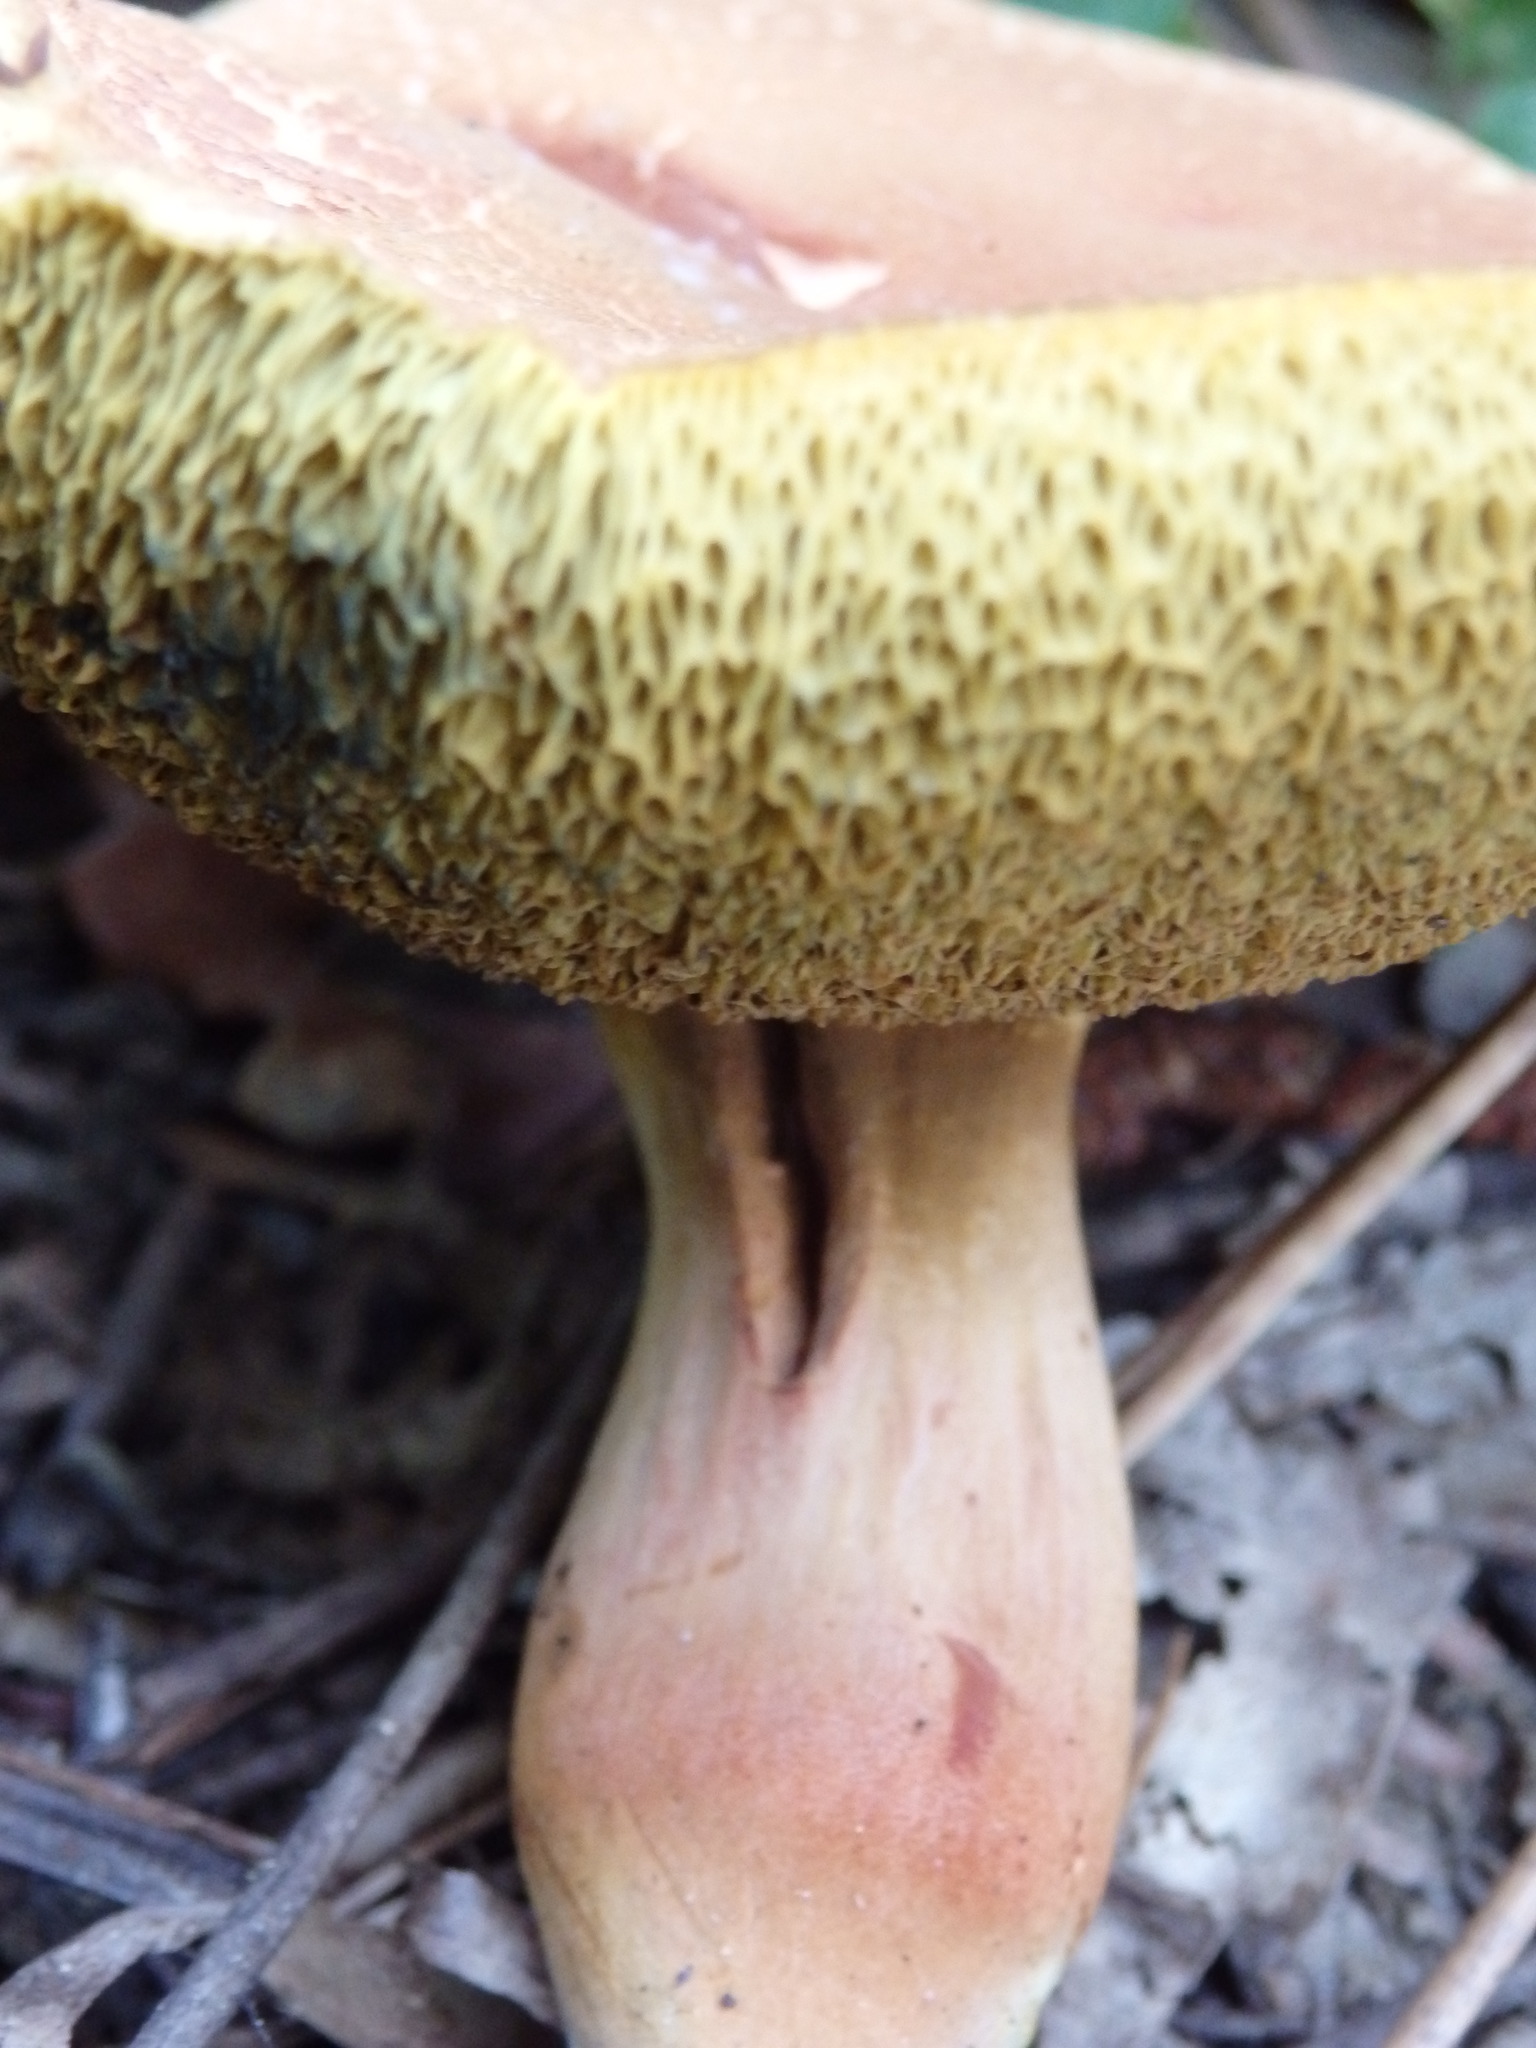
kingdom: Fungi
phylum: Basidiomycota
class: Agaricomycetes
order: Boletales
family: Boletaceae
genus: Xerocomellus
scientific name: Xerocomellus chrysenteron
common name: Red-cracking bolete
